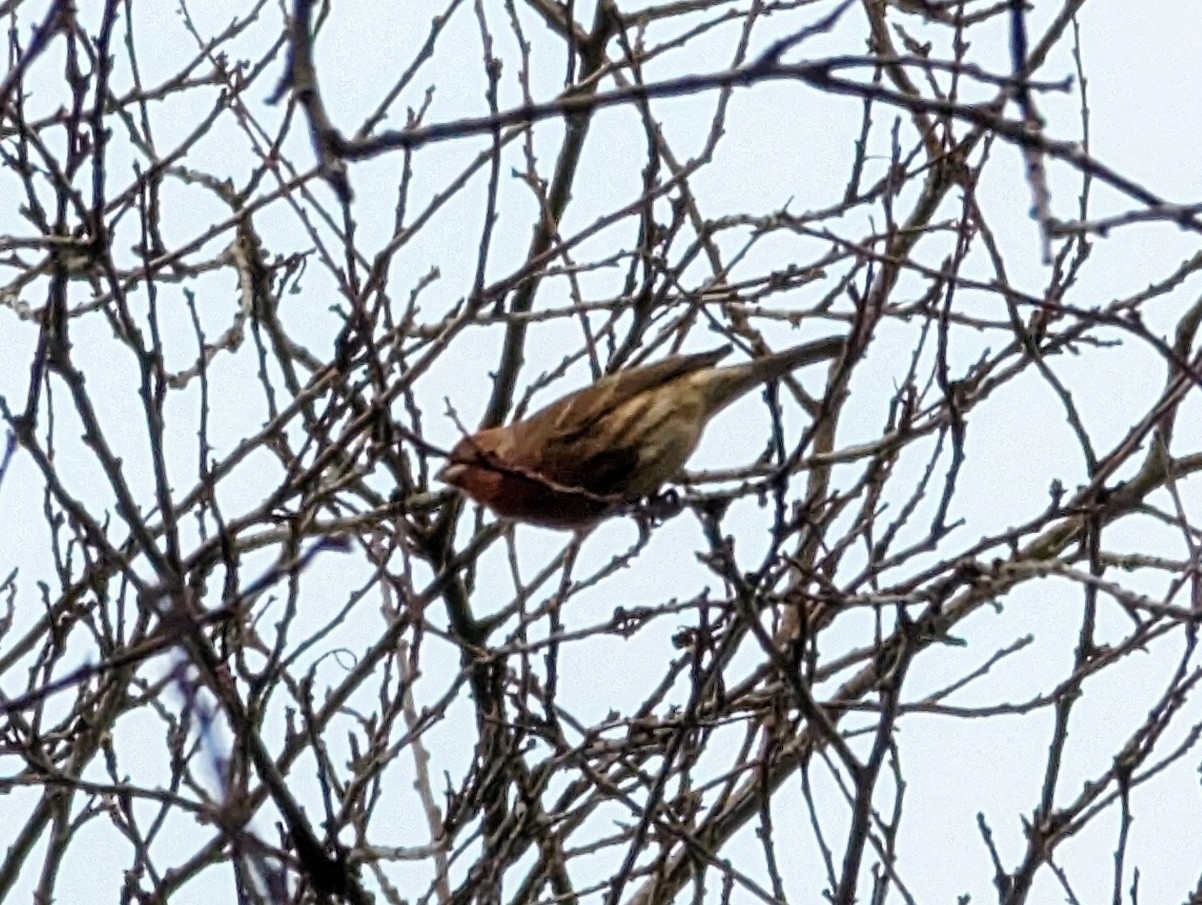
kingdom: Animalia
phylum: Chordata
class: Aves
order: Passeriformes
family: Fringillidae
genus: Haemorhous
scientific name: Haemorhous mexicanus
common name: House finch
